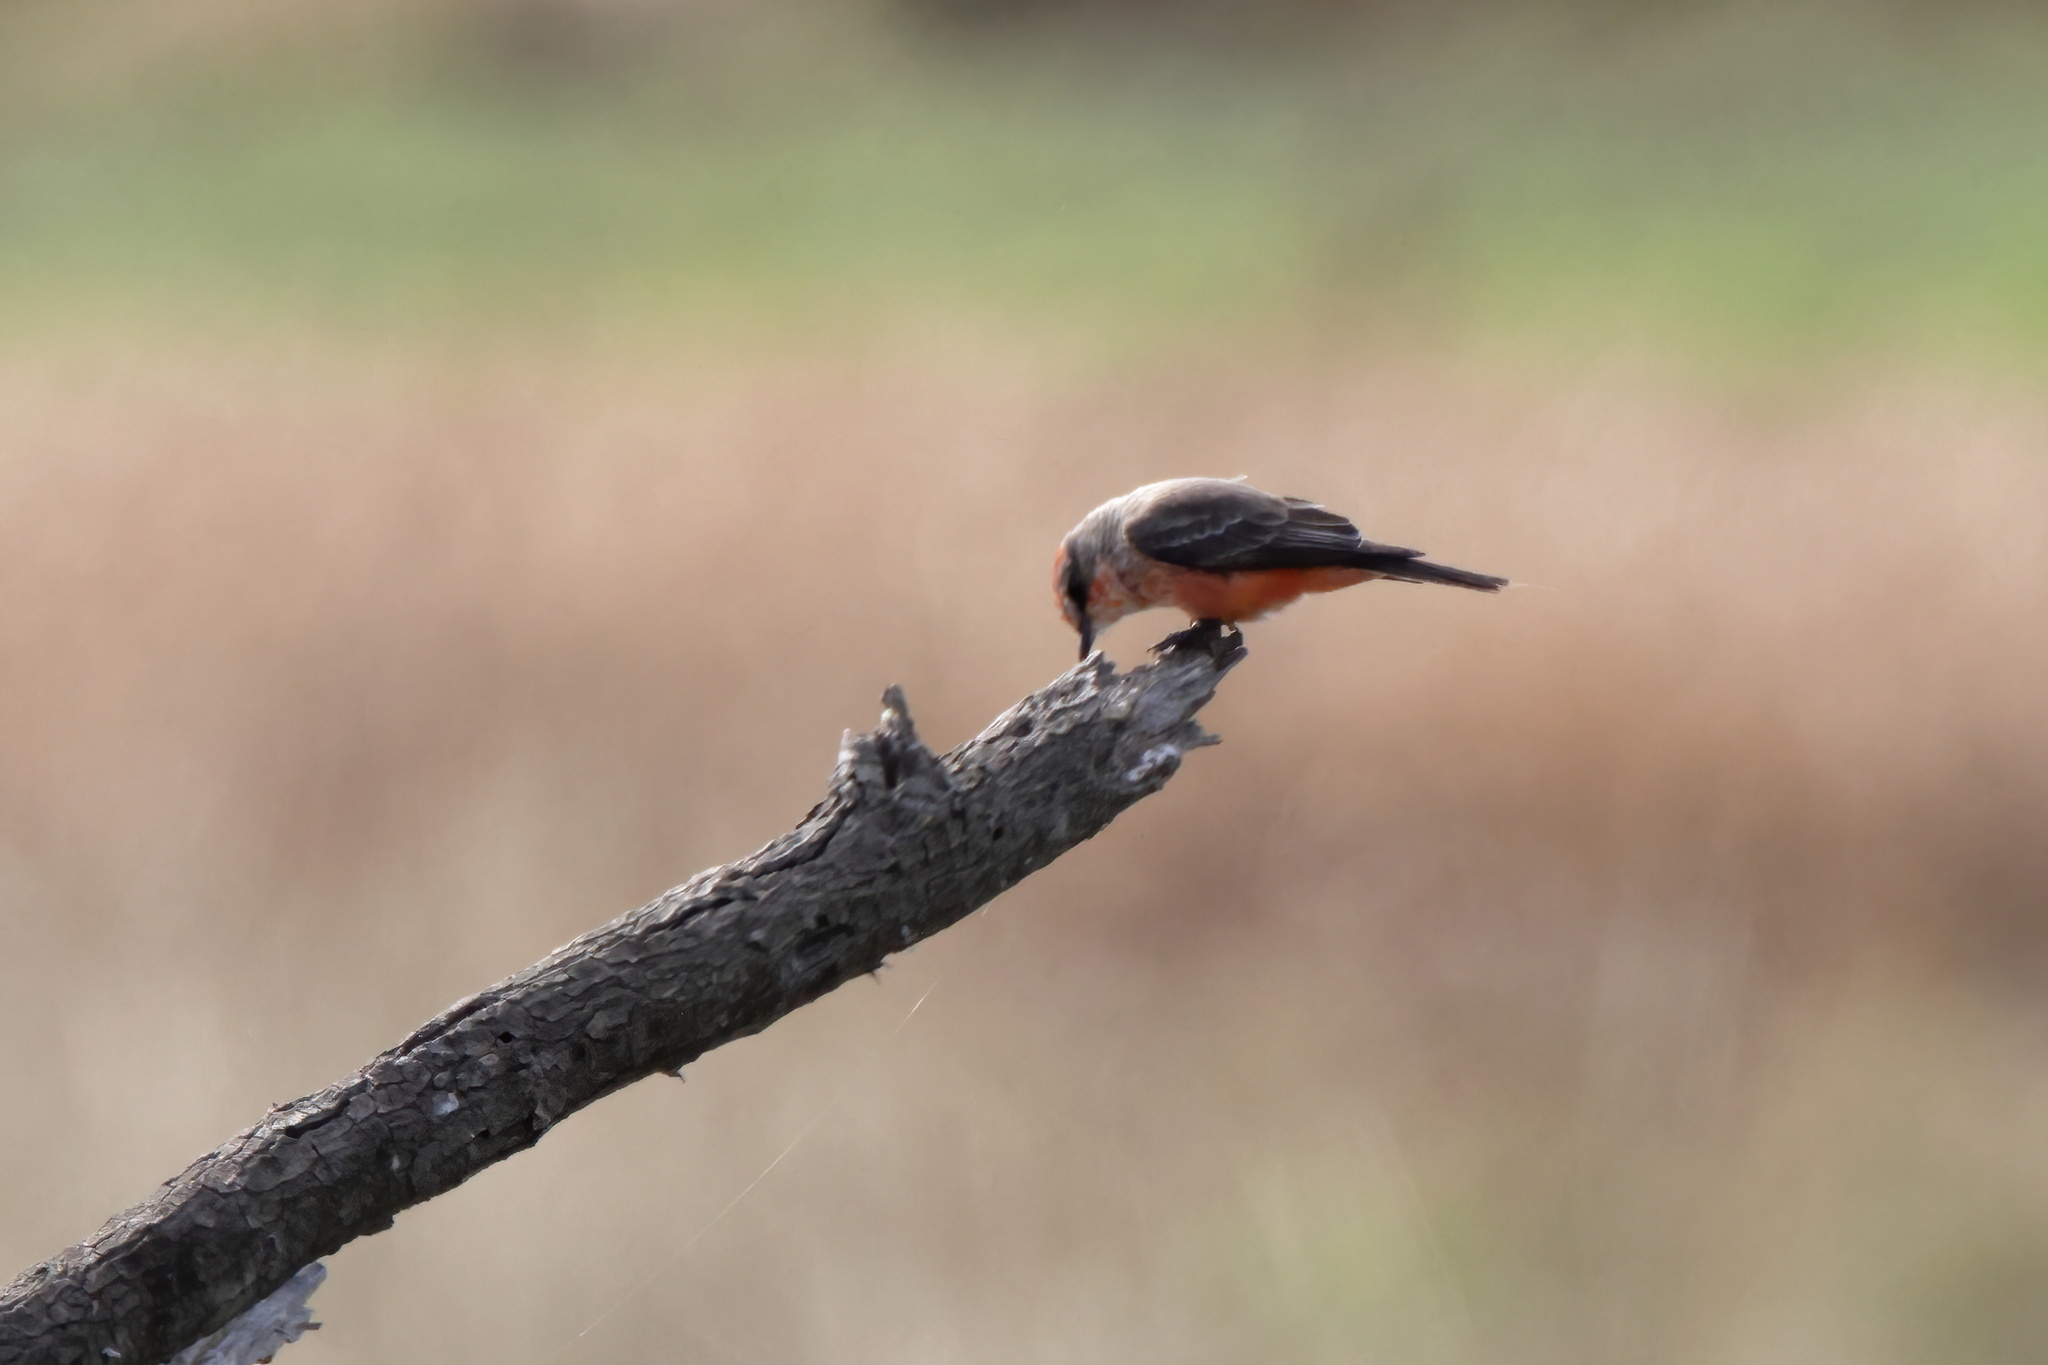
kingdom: Animalia
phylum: Chordata
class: Aves
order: Passeriformes
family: Tyrannidae
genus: Pyrocephalus
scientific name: Pyrocephalus rubinus
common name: Vermilion flycatcher
